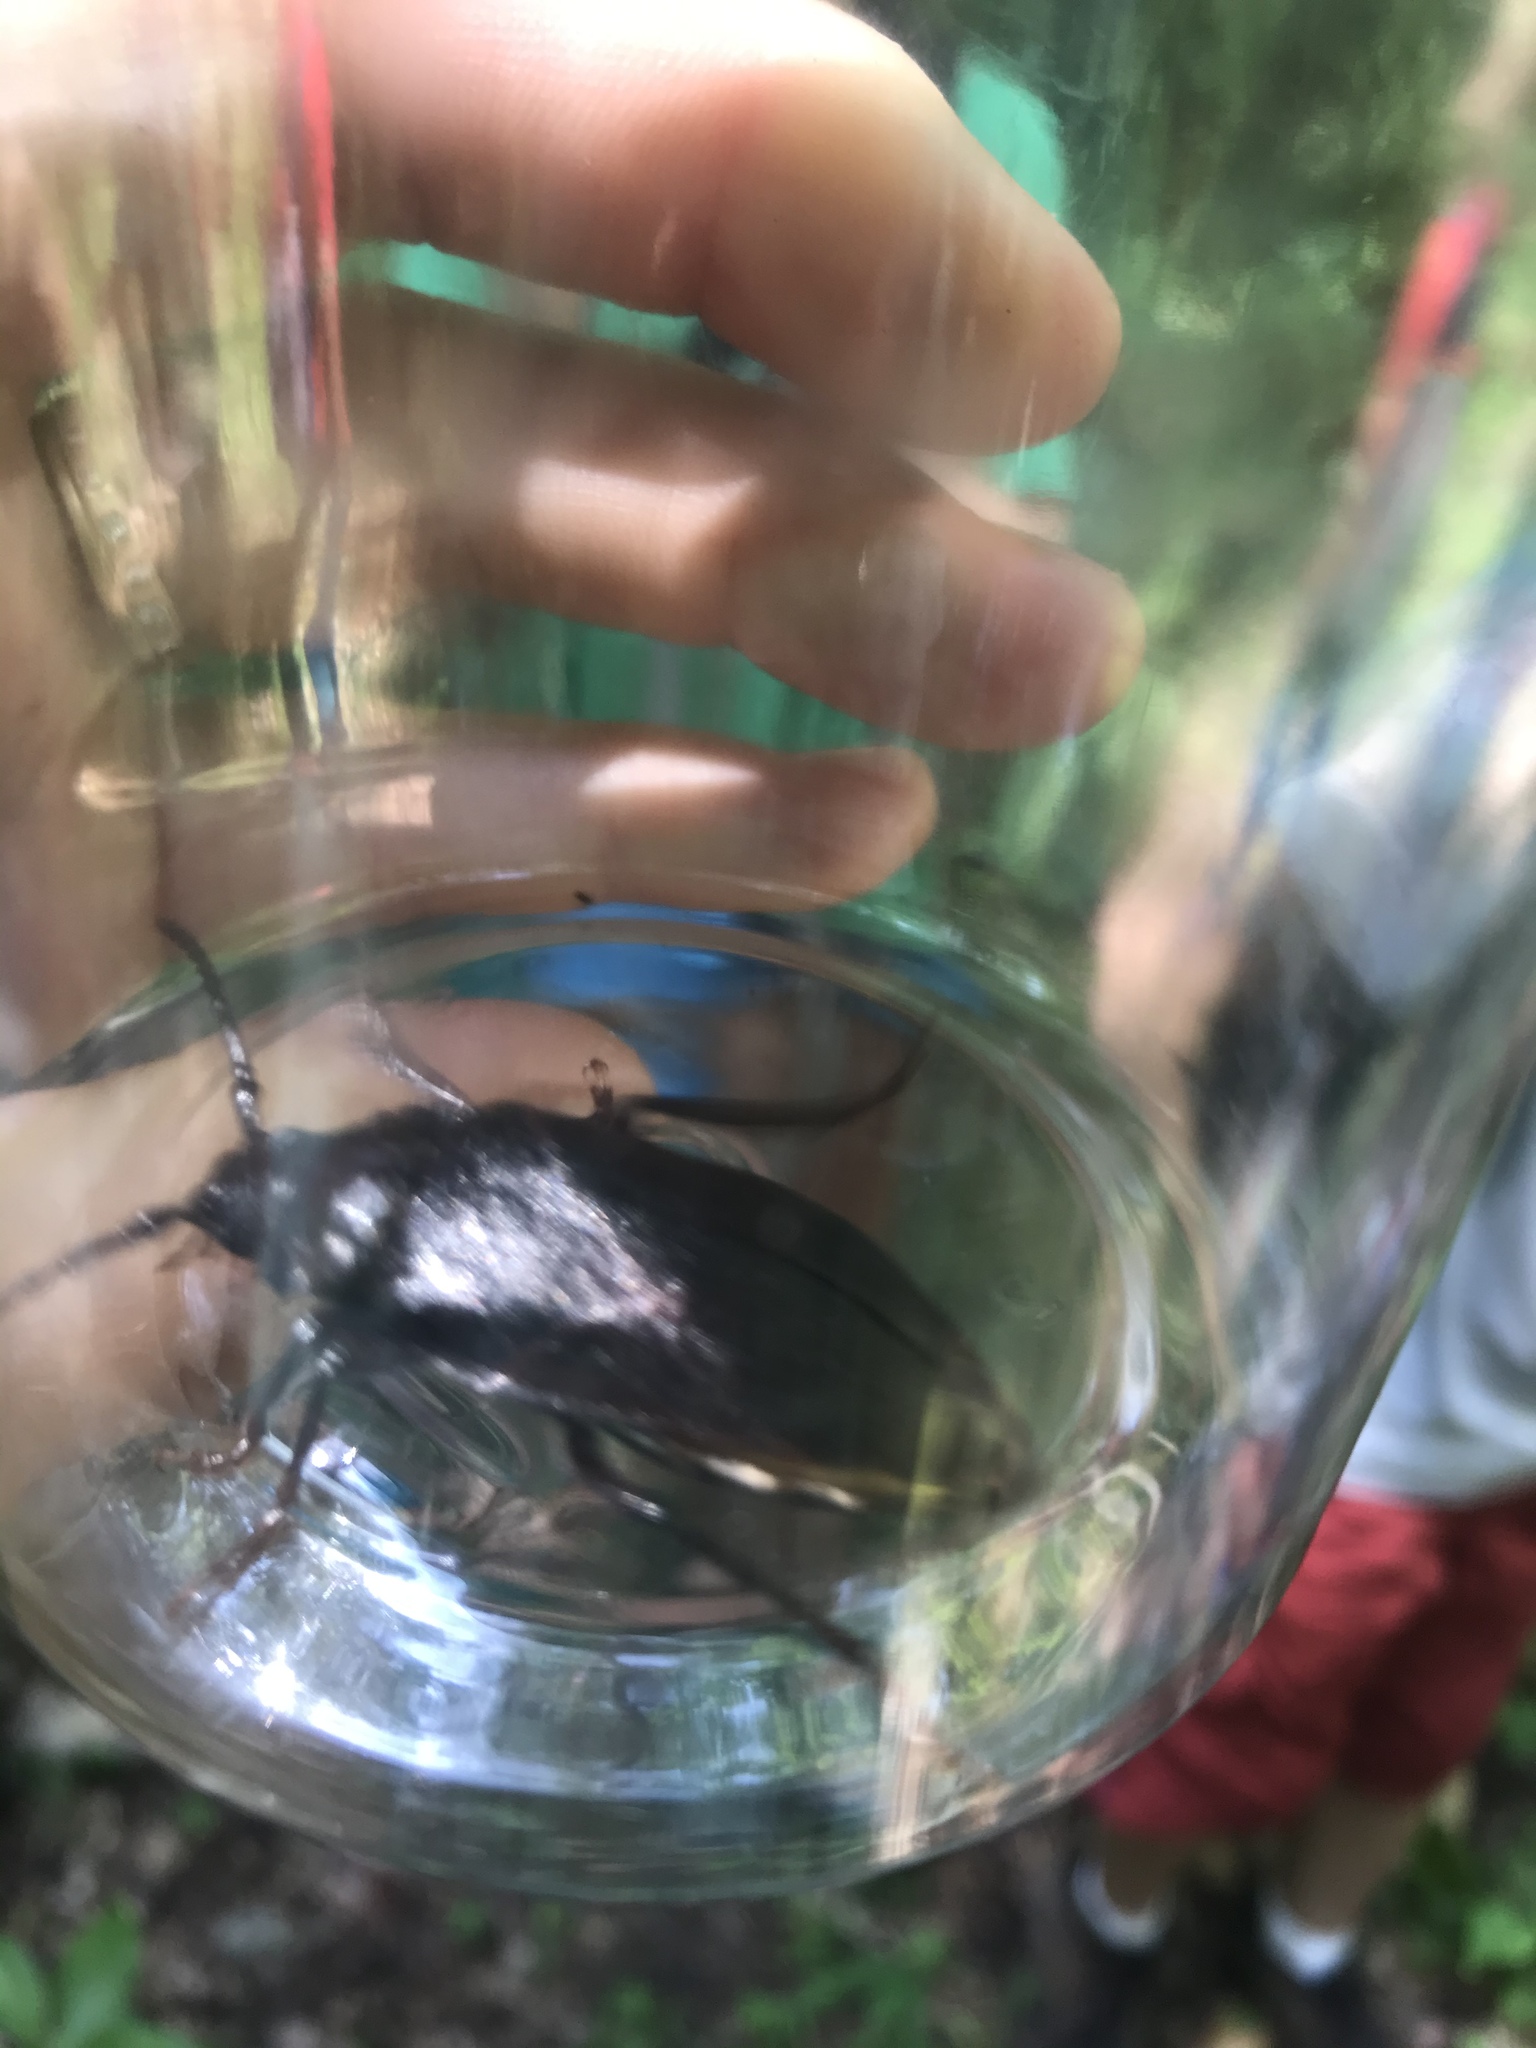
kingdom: Animalia
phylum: Arthropoda
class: Insecta
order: Coleoptera
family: Cerambycidae
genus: Prionus
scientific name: Prionus laticollis
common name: Broad necked prionus
